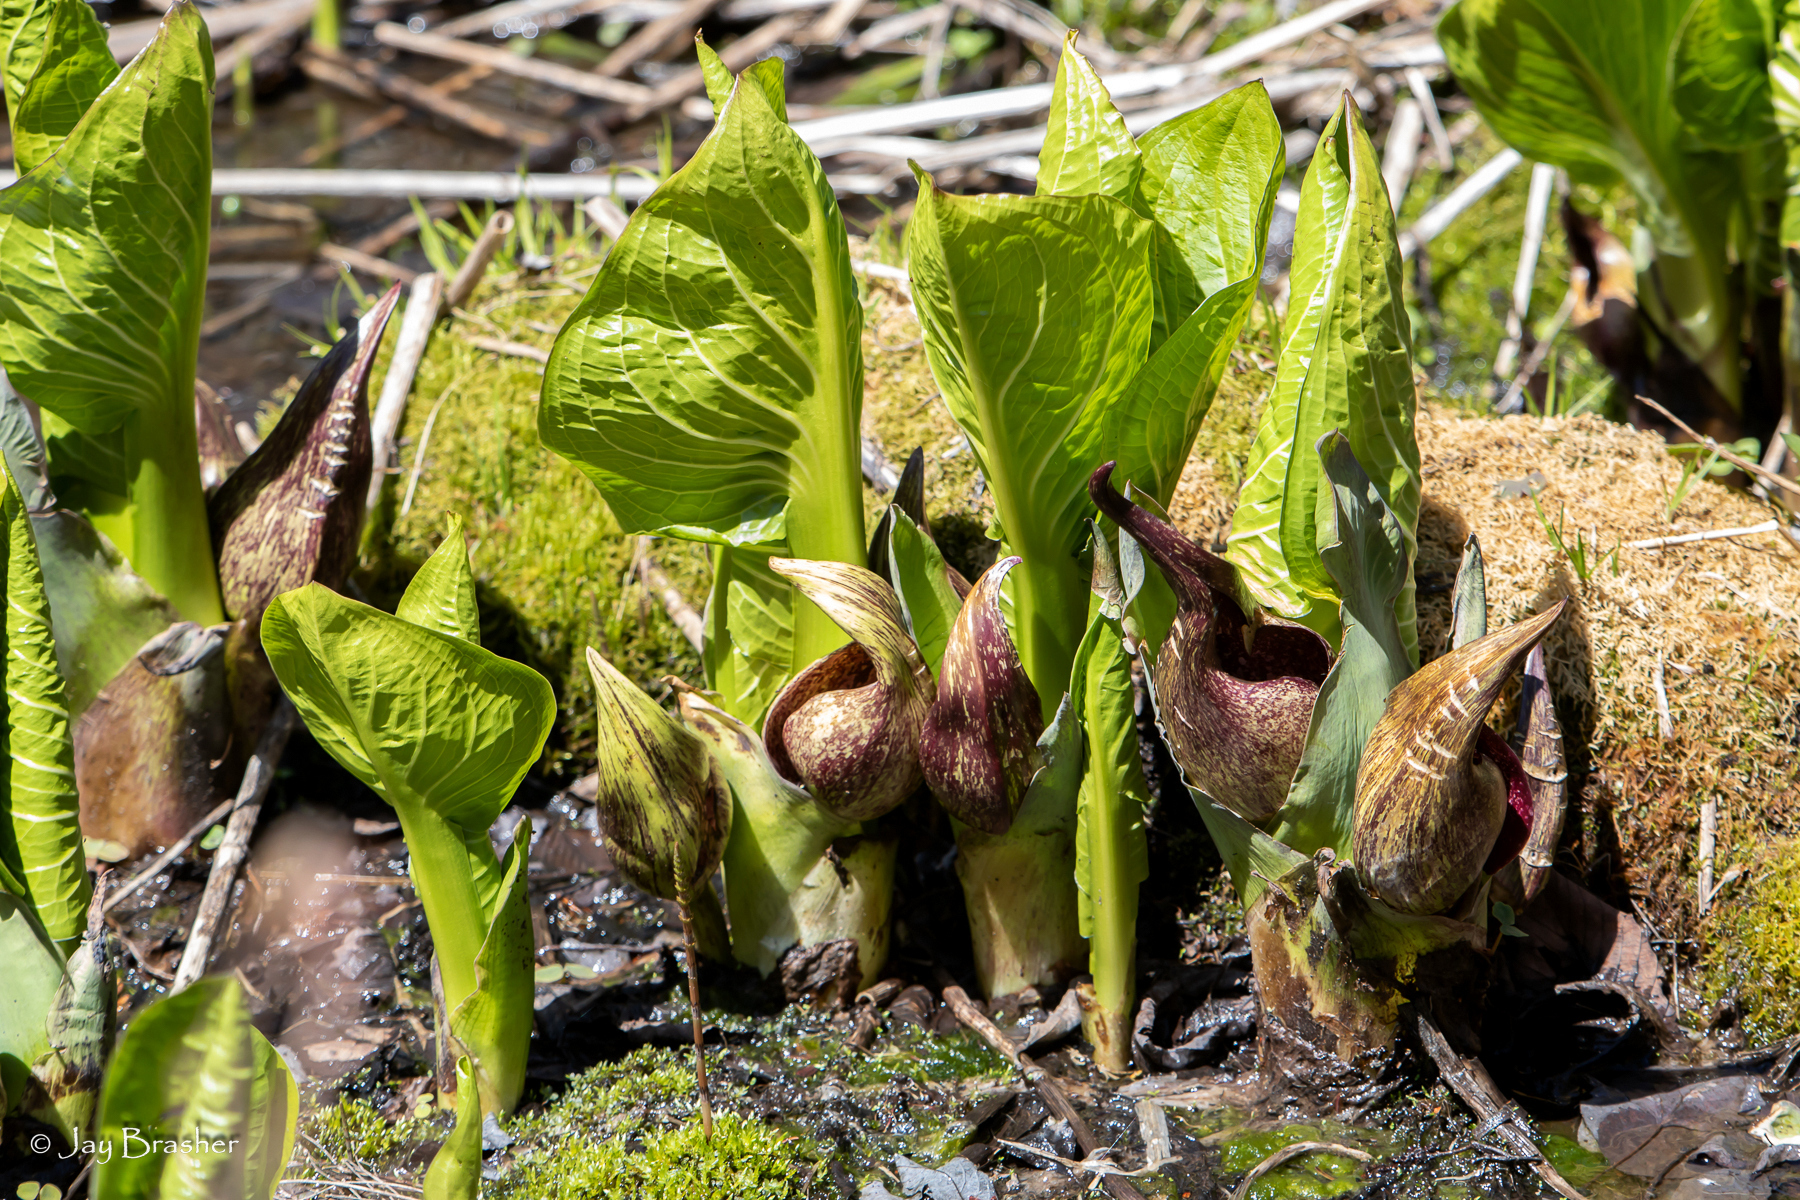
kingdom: Plantae
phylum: Tracheophyta
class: Liliopsida
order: Alismatales
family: Araceae
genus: Symplocarpus
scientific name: Symplocarpus foetidus
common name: Eastern skunk cabbage
